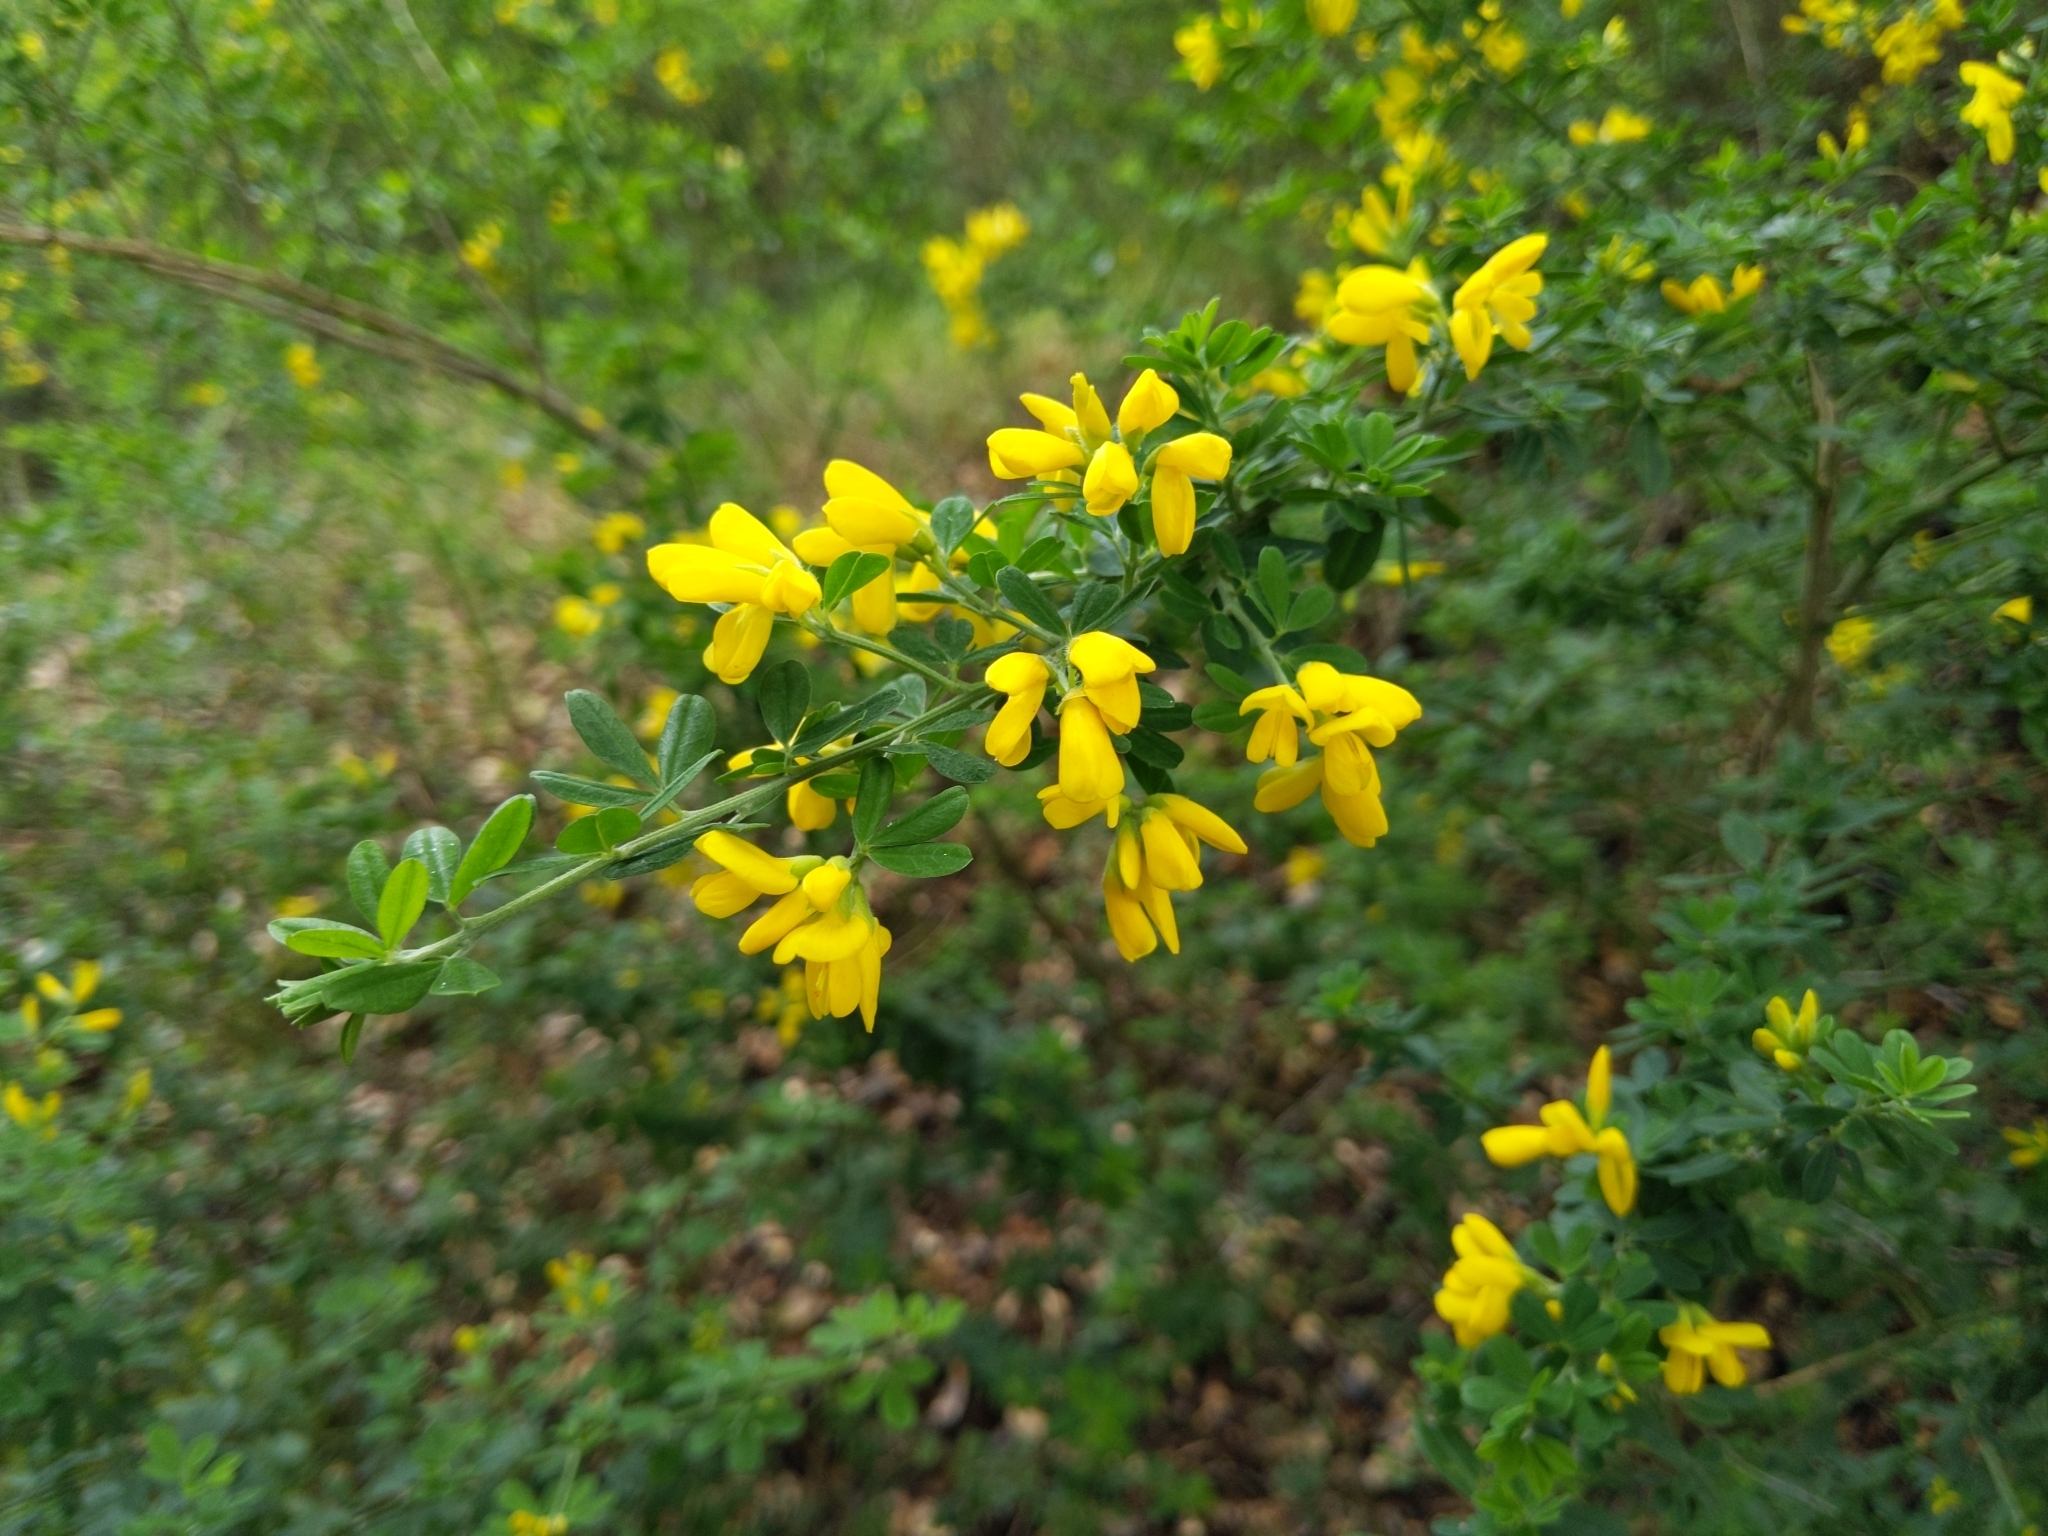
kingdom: Plantae
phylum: Tracheophyta
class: Magnoliopsida
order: Fabales
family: Fabaceae
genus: Genista
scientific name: Genista monspessulana
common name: Montpellier broom
